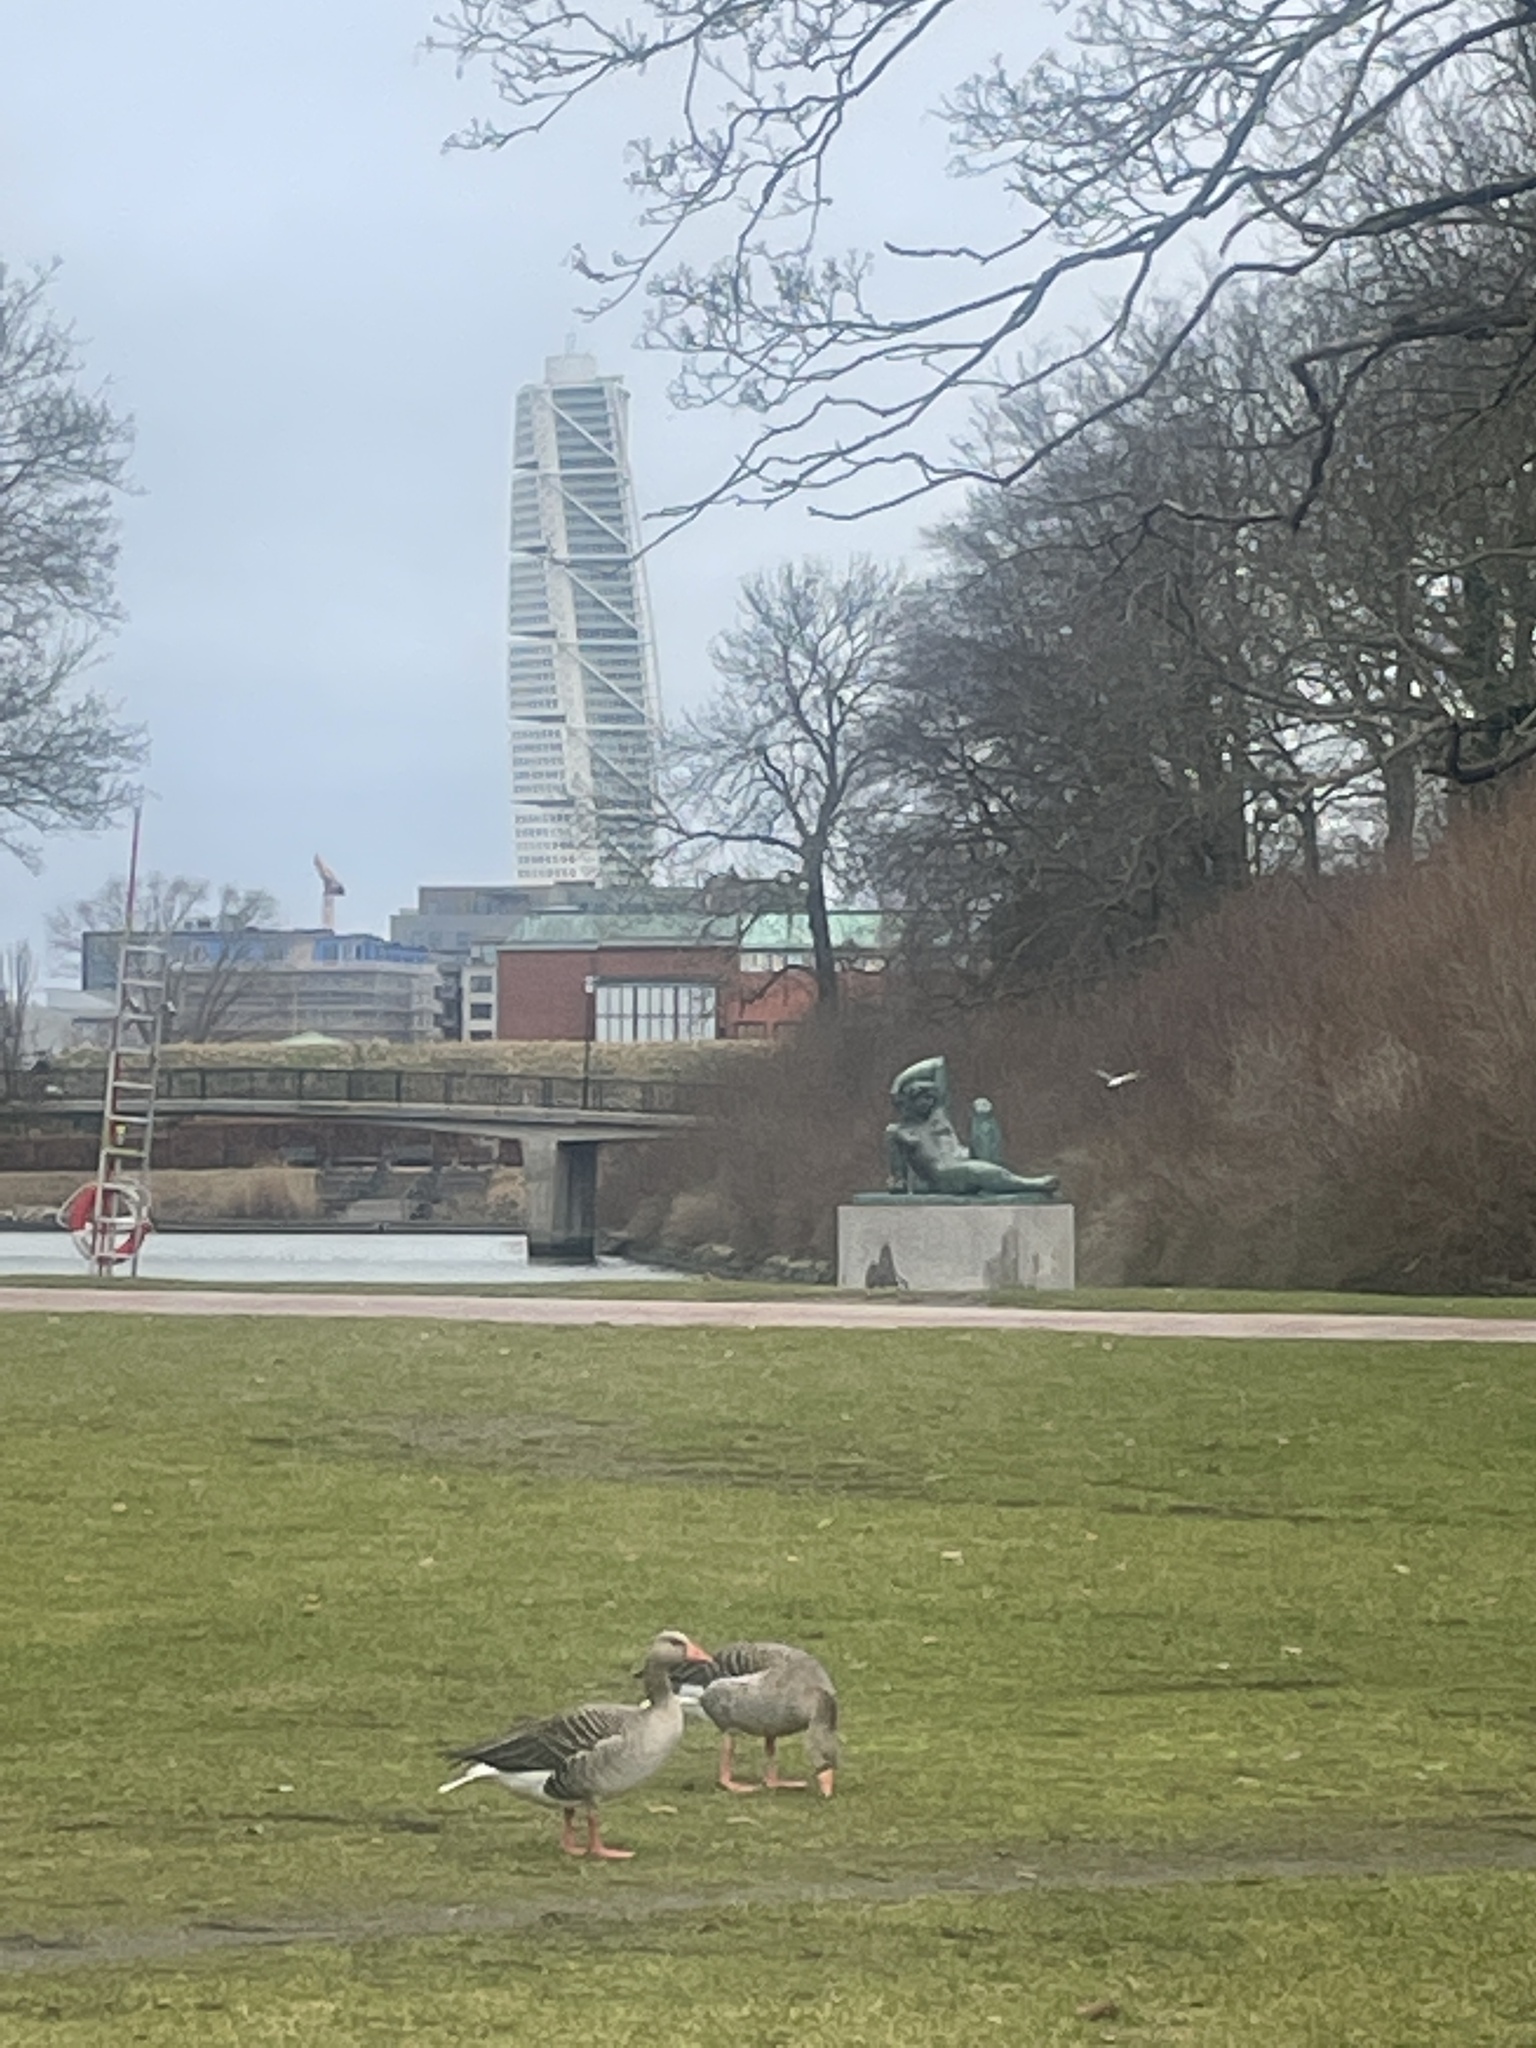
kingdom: Animalia
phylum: Chordata
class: Aves
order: Anseriformes
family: Anatidae
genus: Anser
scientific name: Anser anser
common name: Greylag goose
